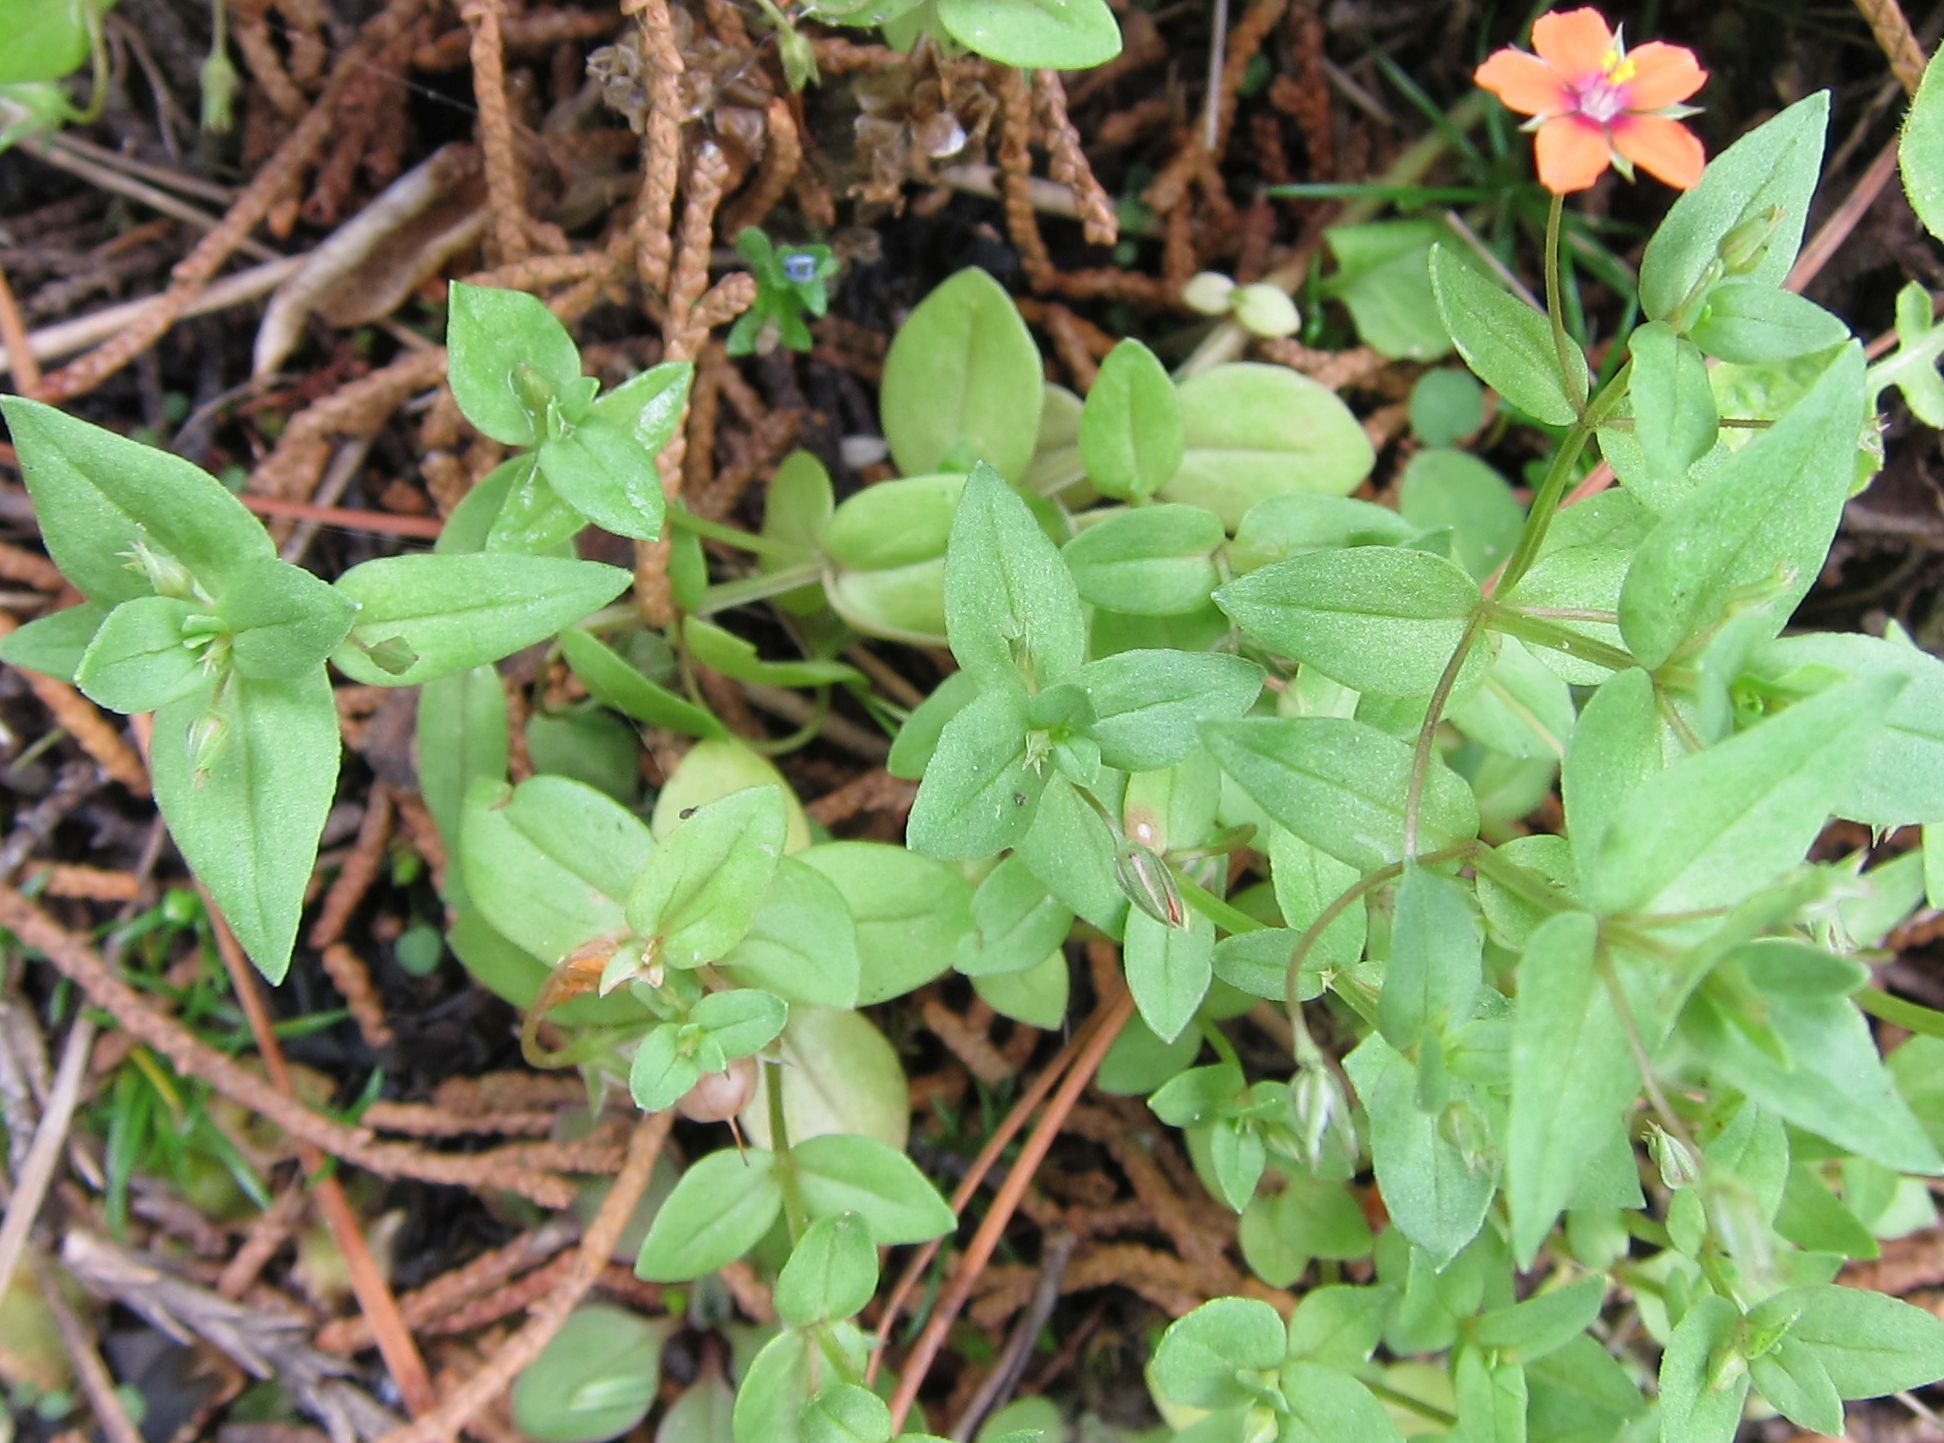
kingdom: Plantae
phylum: Tracheophyta
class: Magnoliopsida
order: Ericales
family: Primulaceae
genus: Lysimachia
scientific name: Lysimachia arvensis
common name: Scarlet pimpernel
